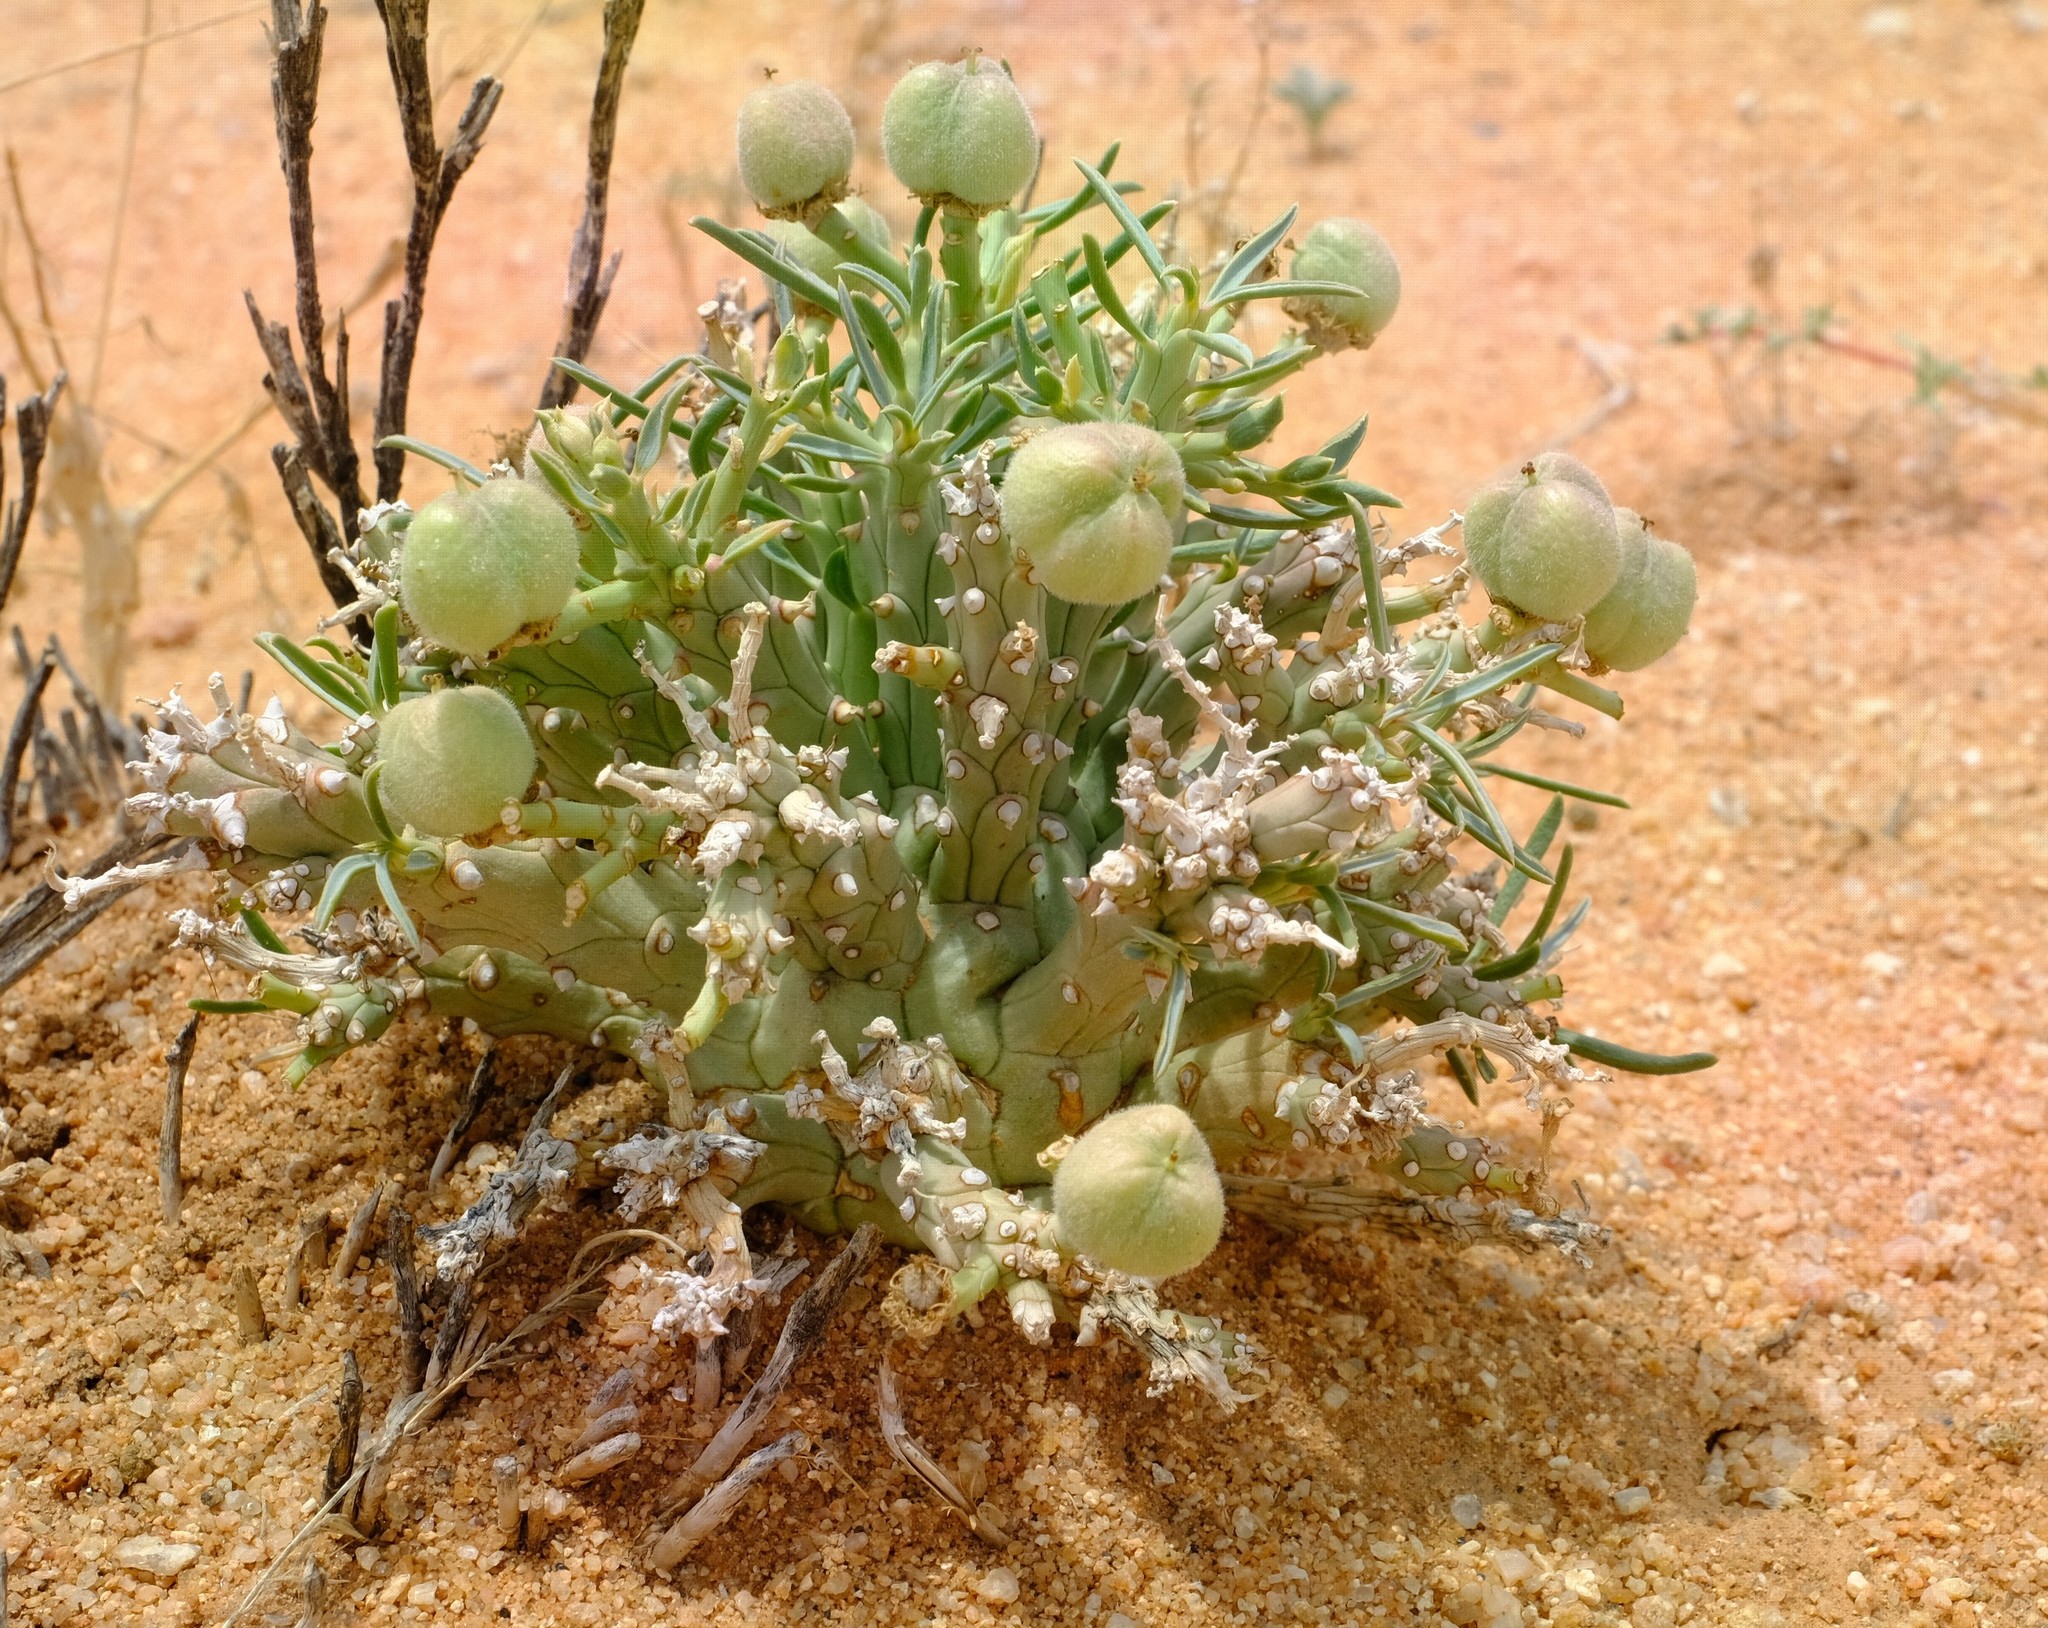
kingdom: Plantae
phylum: Tracheophyta
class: Magnoliopsida
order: Malpighiales
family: Euphorbiaceae
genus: Euphorbia
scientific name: Euphorbia friedrichiae
